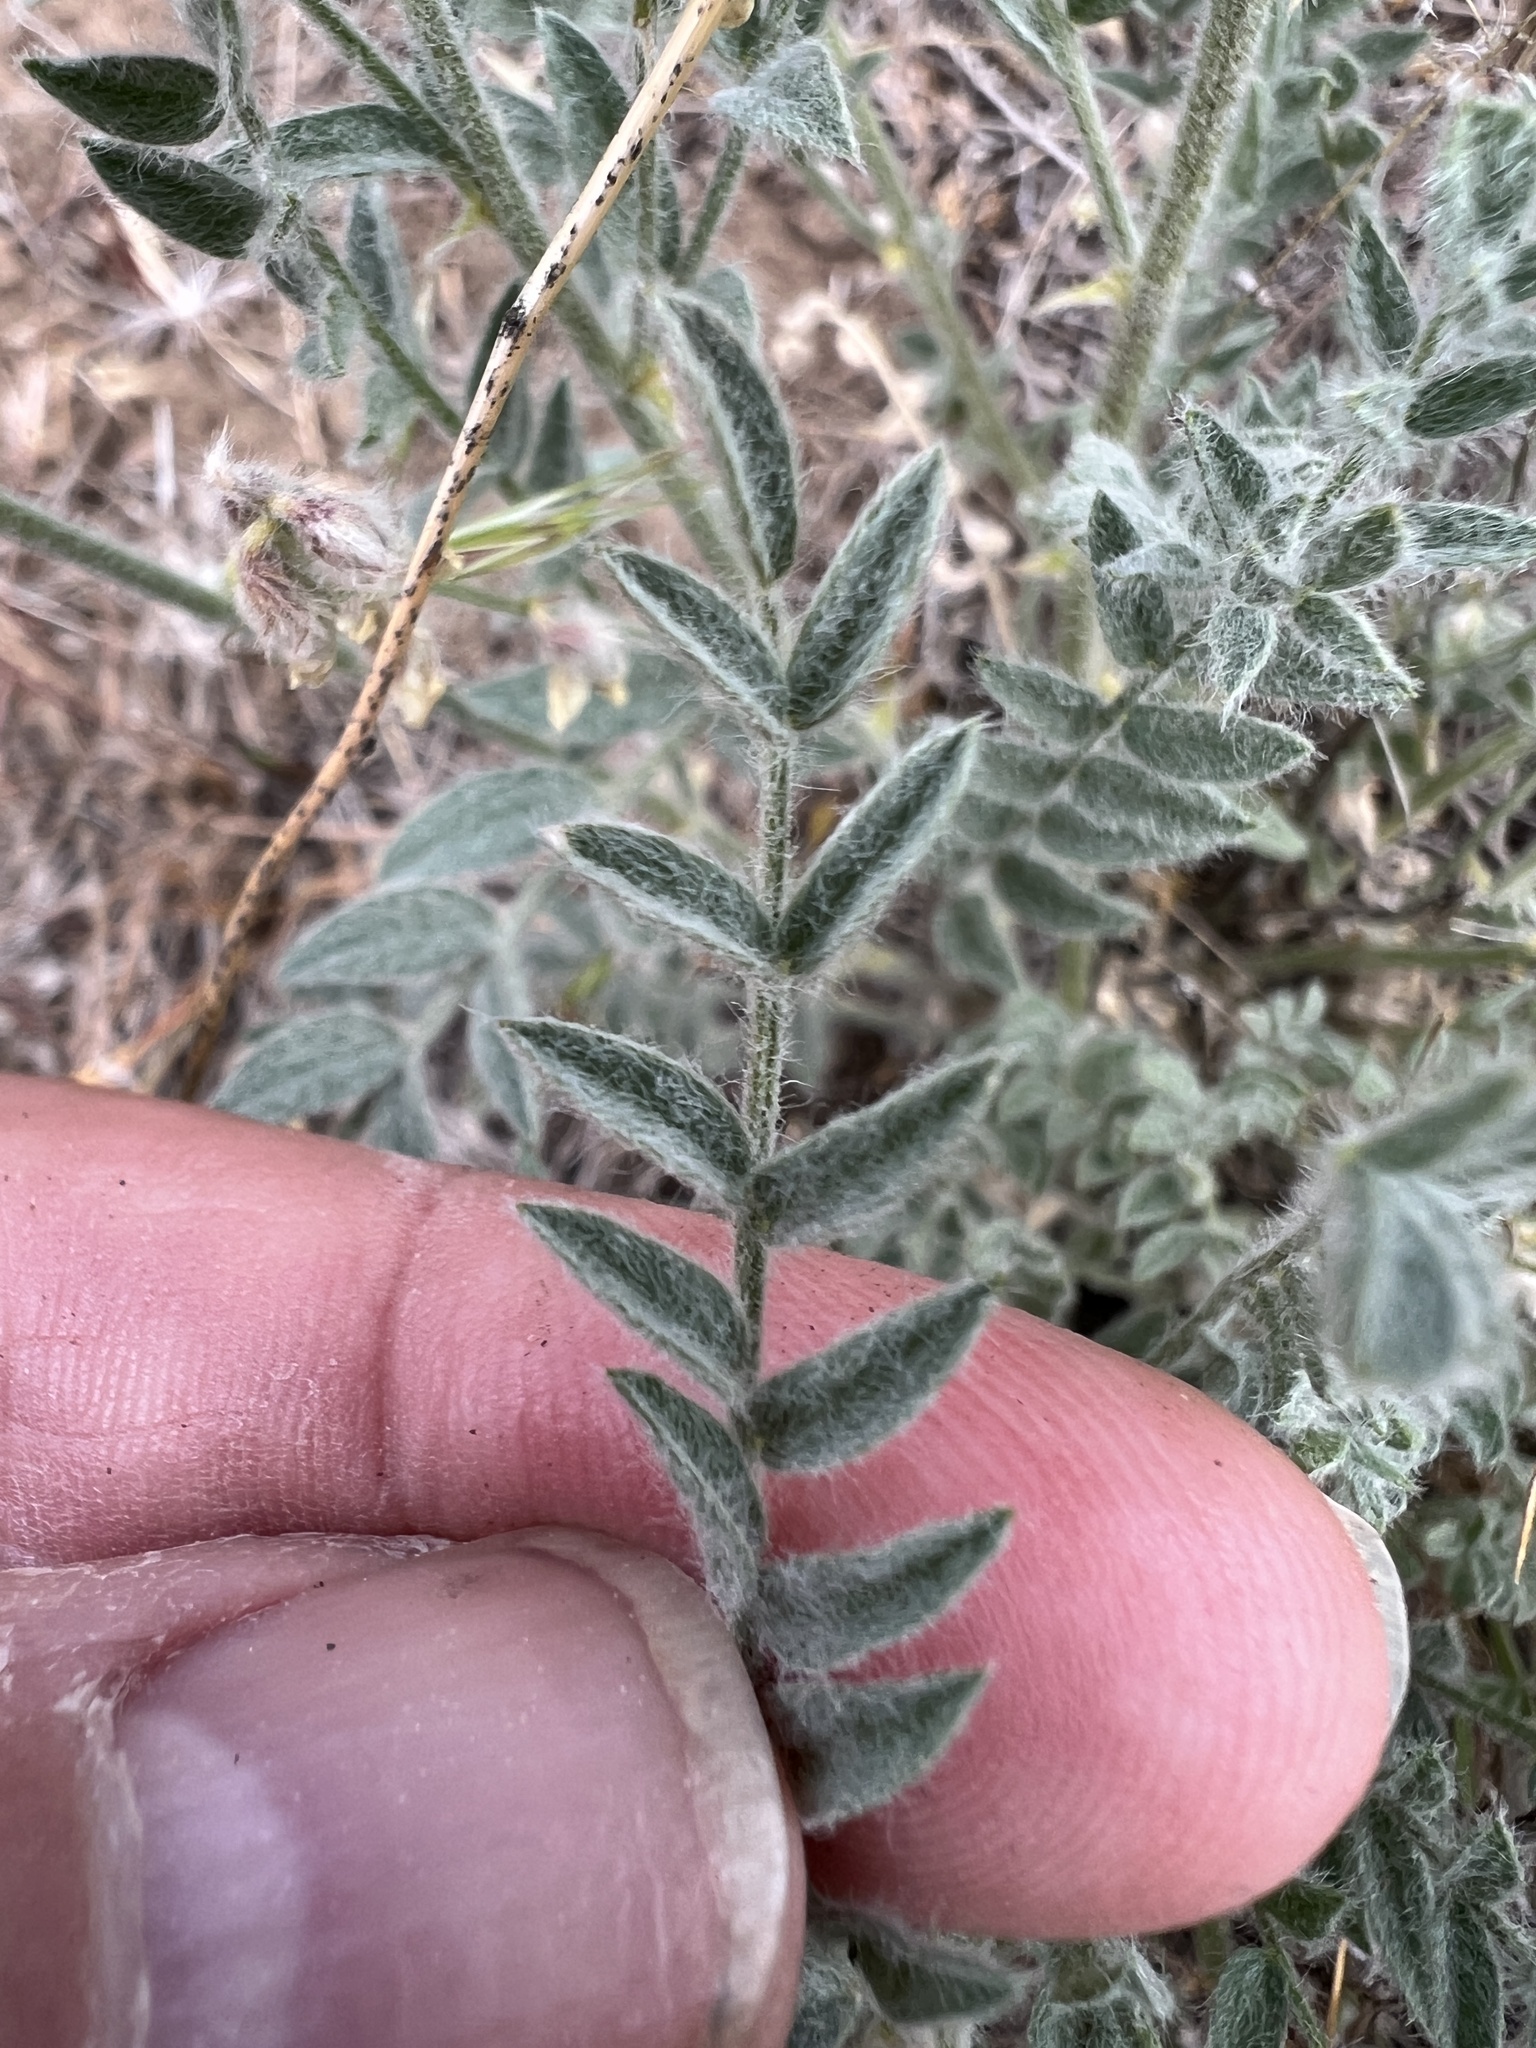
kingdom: Plantae
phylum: Tracheophyta
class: Magnoliopsida
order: Fabales
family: Fabaceae
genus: Astragalus
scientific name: Astragalus lyallii
